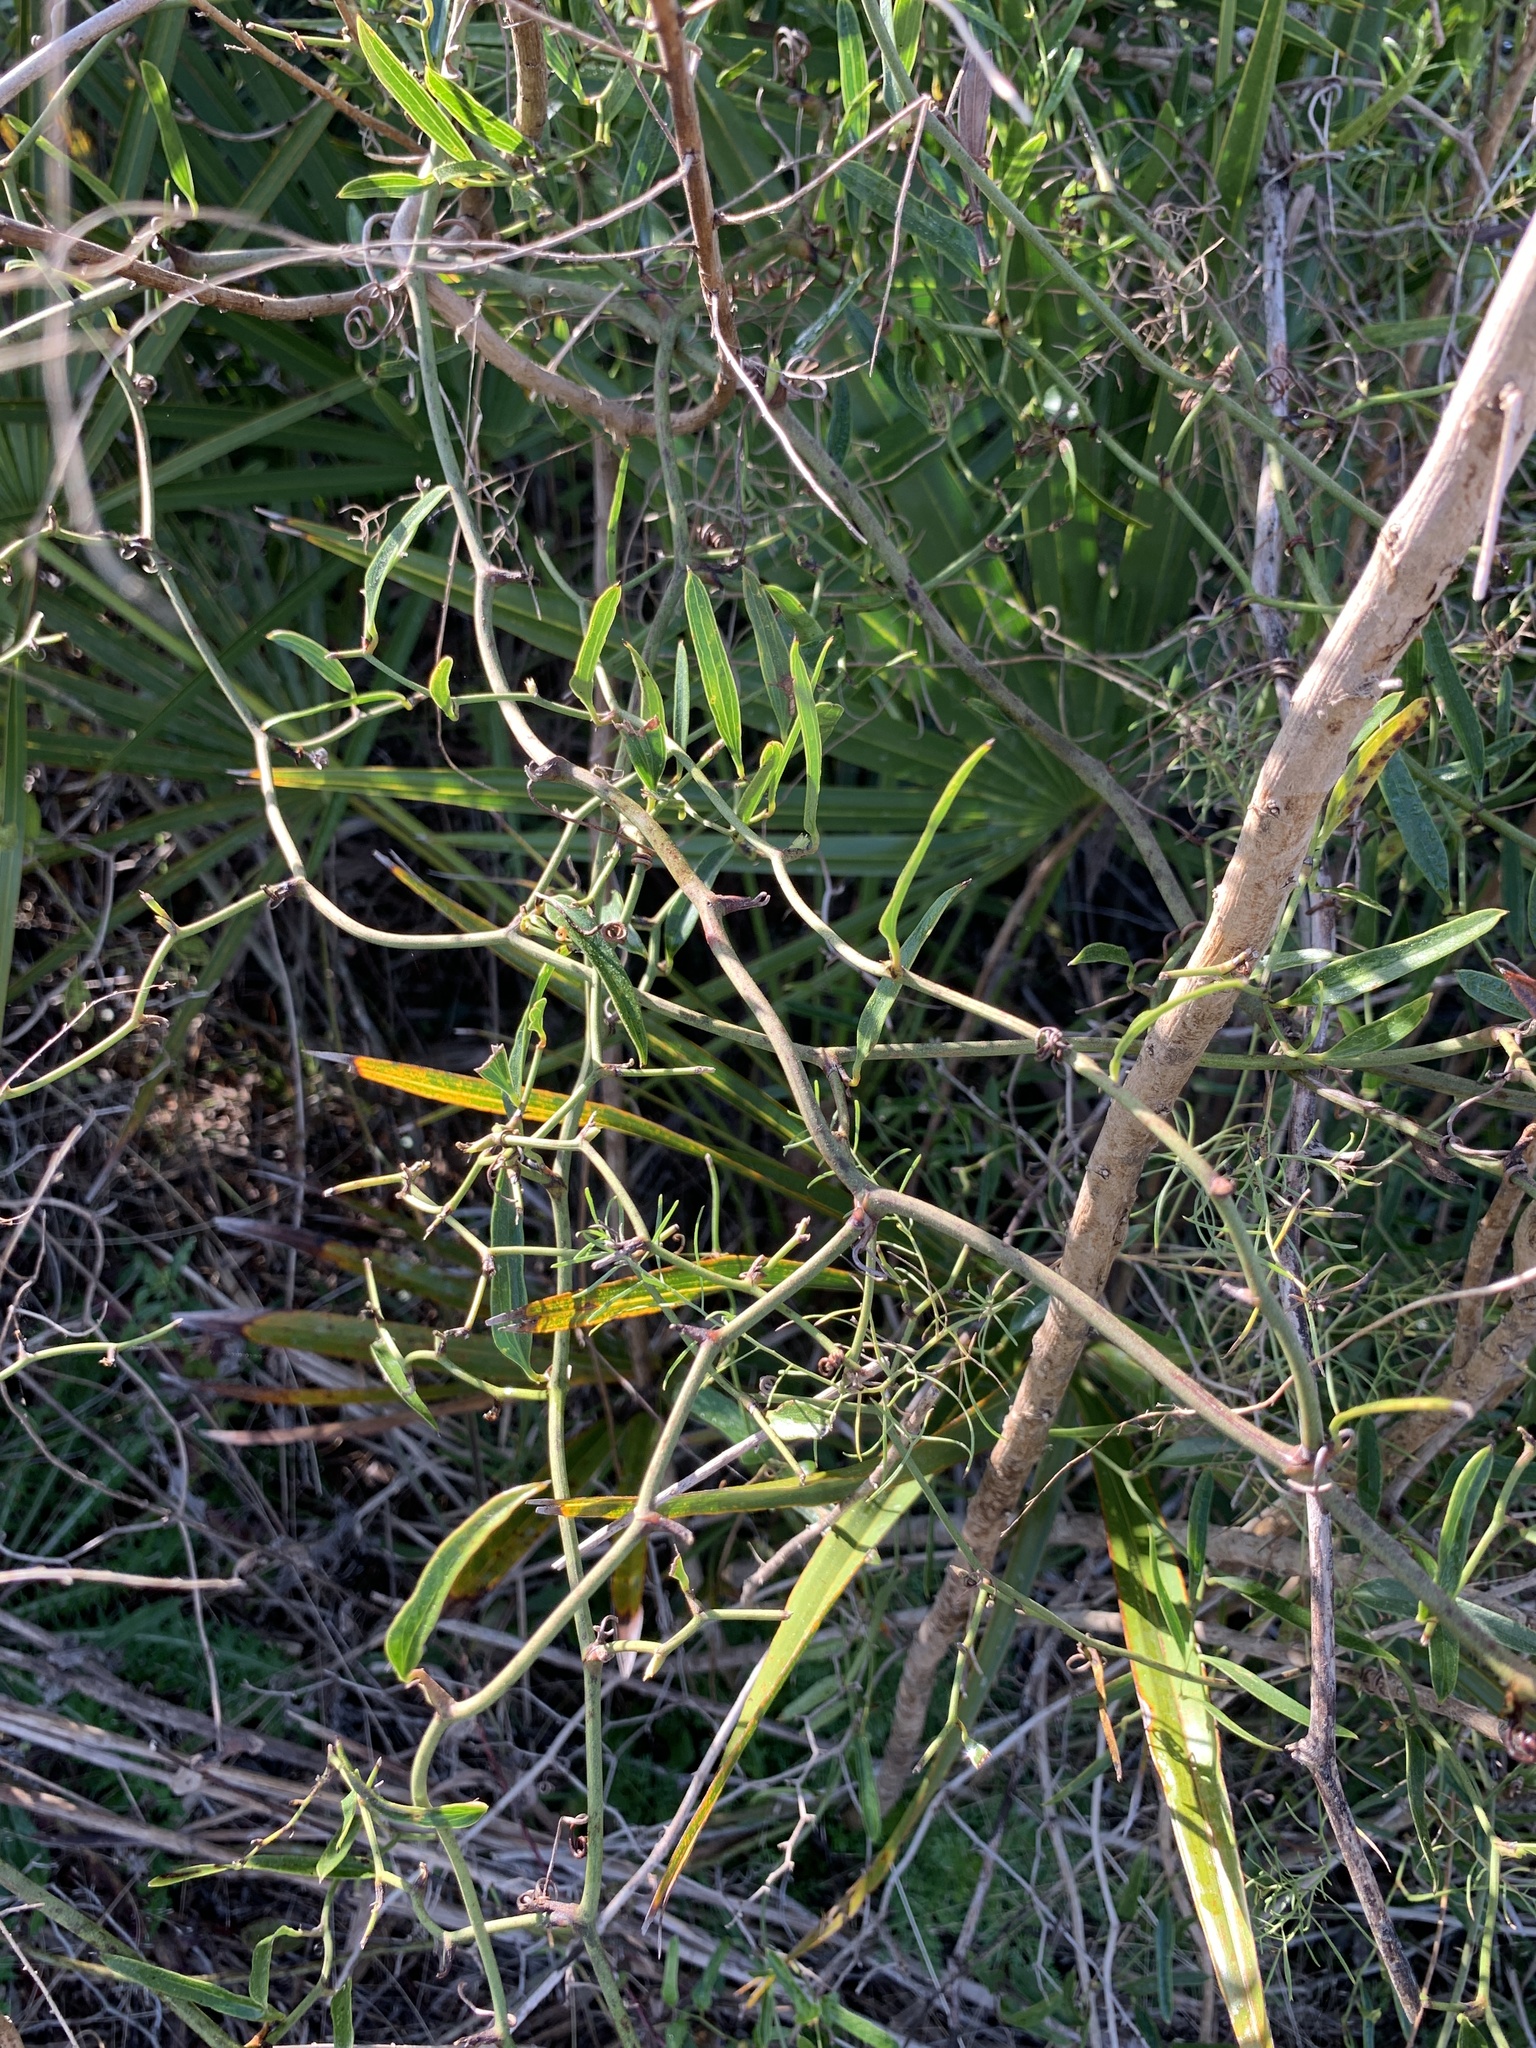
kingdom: Plantae
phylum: Tracheophyta
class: Liliopsida
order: Liliales
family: Smilacaceae
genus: Smilax
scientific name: Smilax auriculata
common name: Wild bamboo
